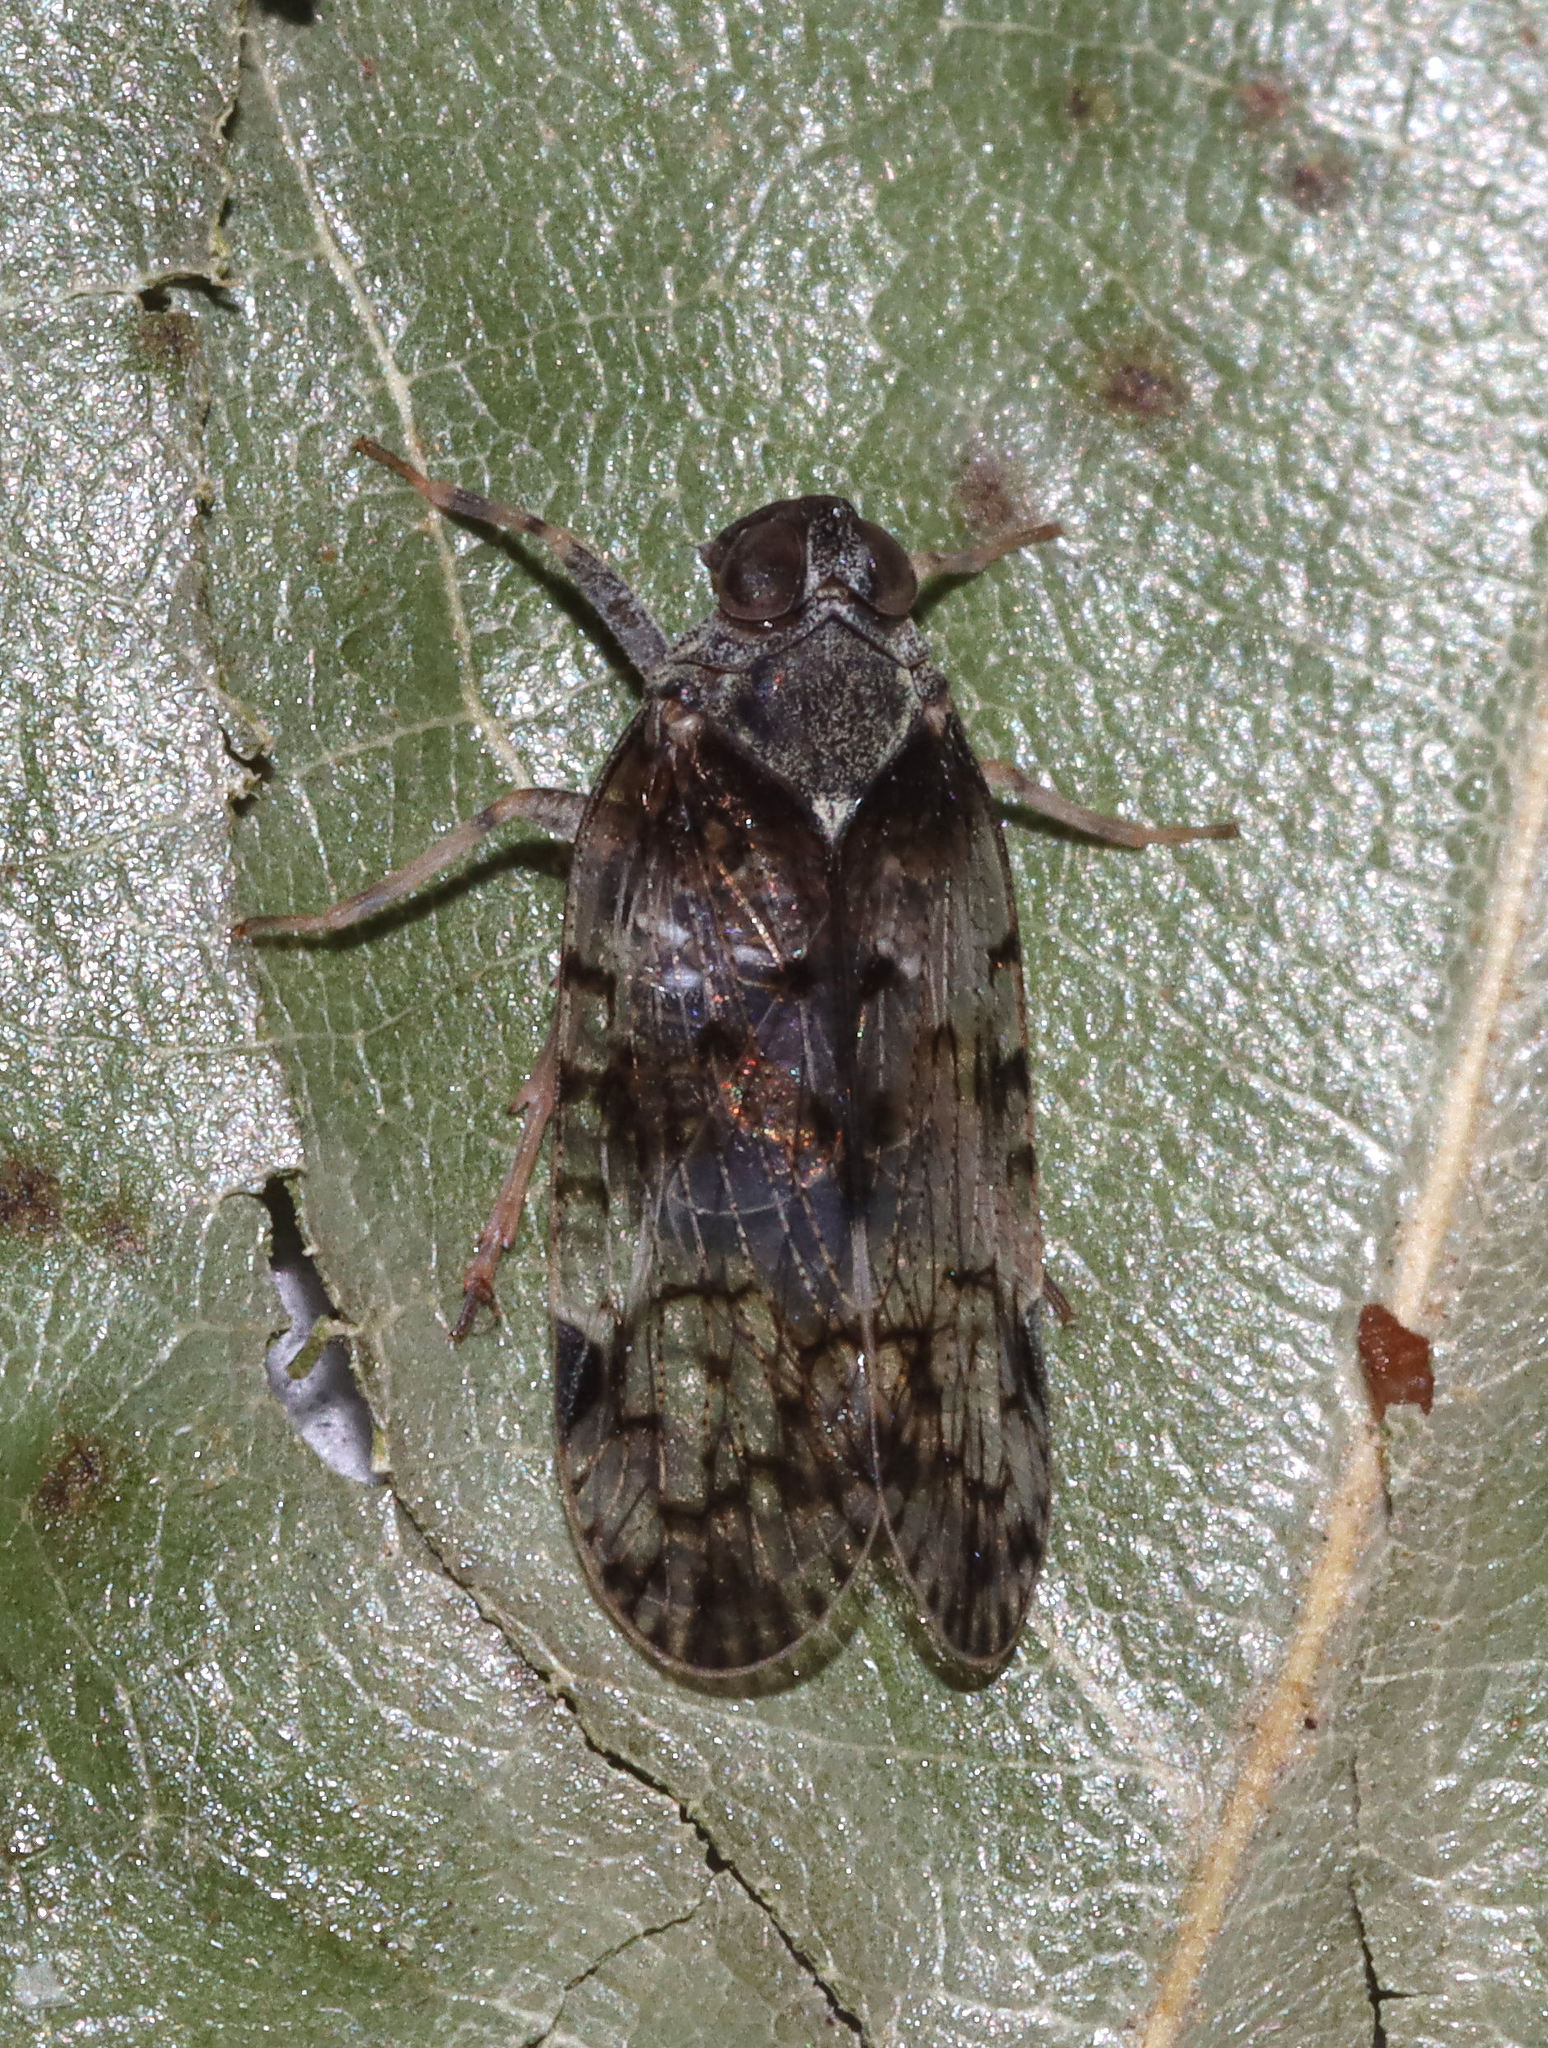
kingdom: Animalia
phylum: Arthropoda
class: Insecta
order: Hemiptera
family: Cixiidae
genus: Melanoliarus
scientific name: Melanoliarus placitus
